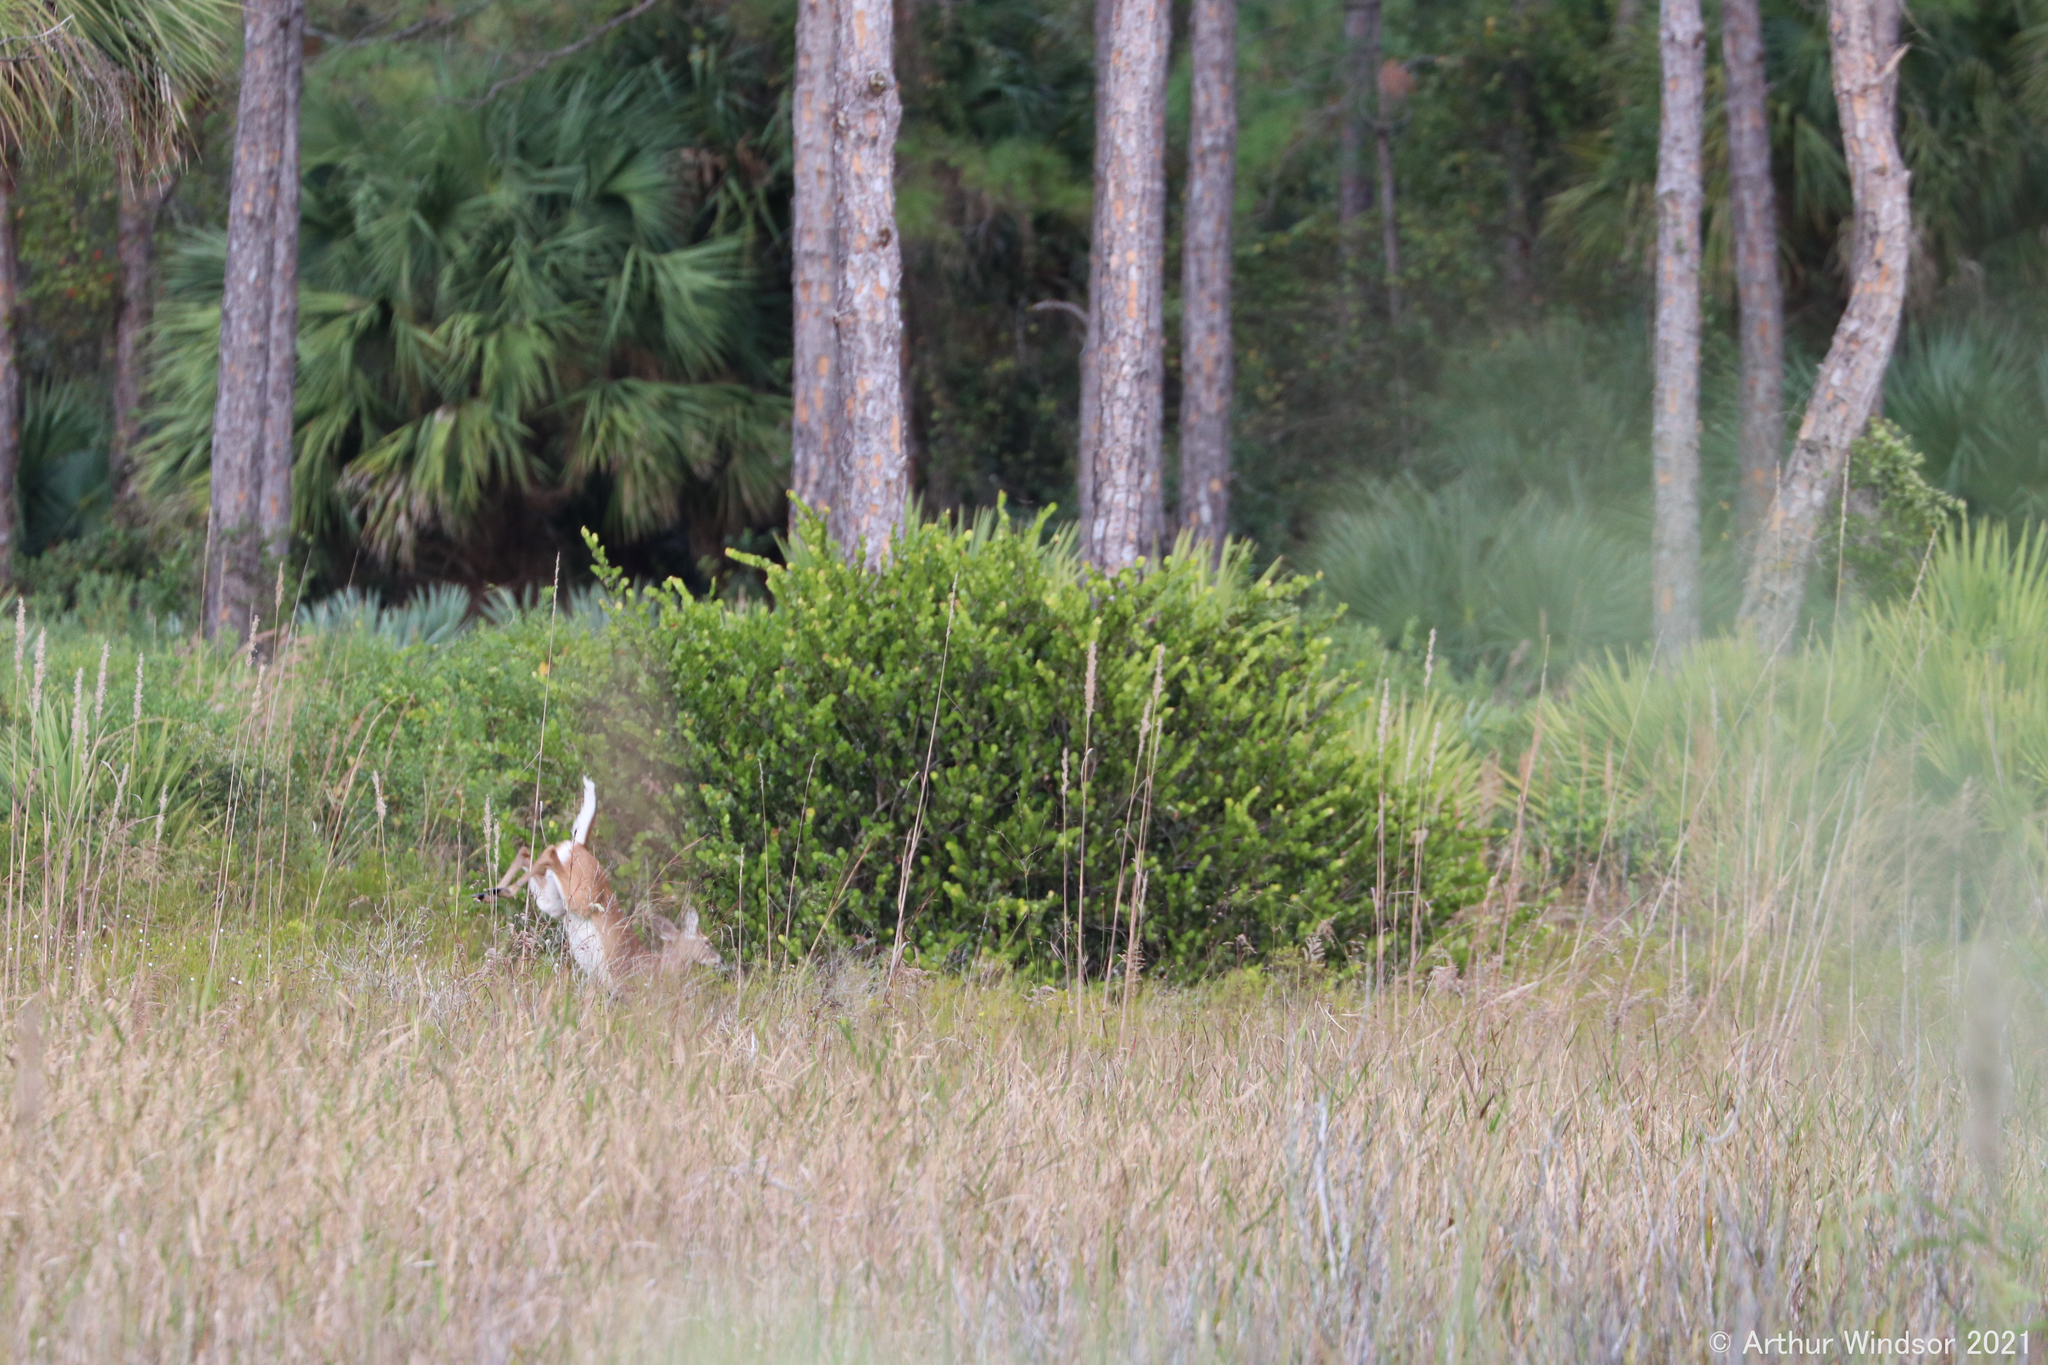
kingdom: Animalia
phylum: Chordata
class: Mammalia
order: Artiodactyla
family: Cervidae
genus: Odocoileus
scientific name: Odocoileus virginianus
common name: White-tailed deer
